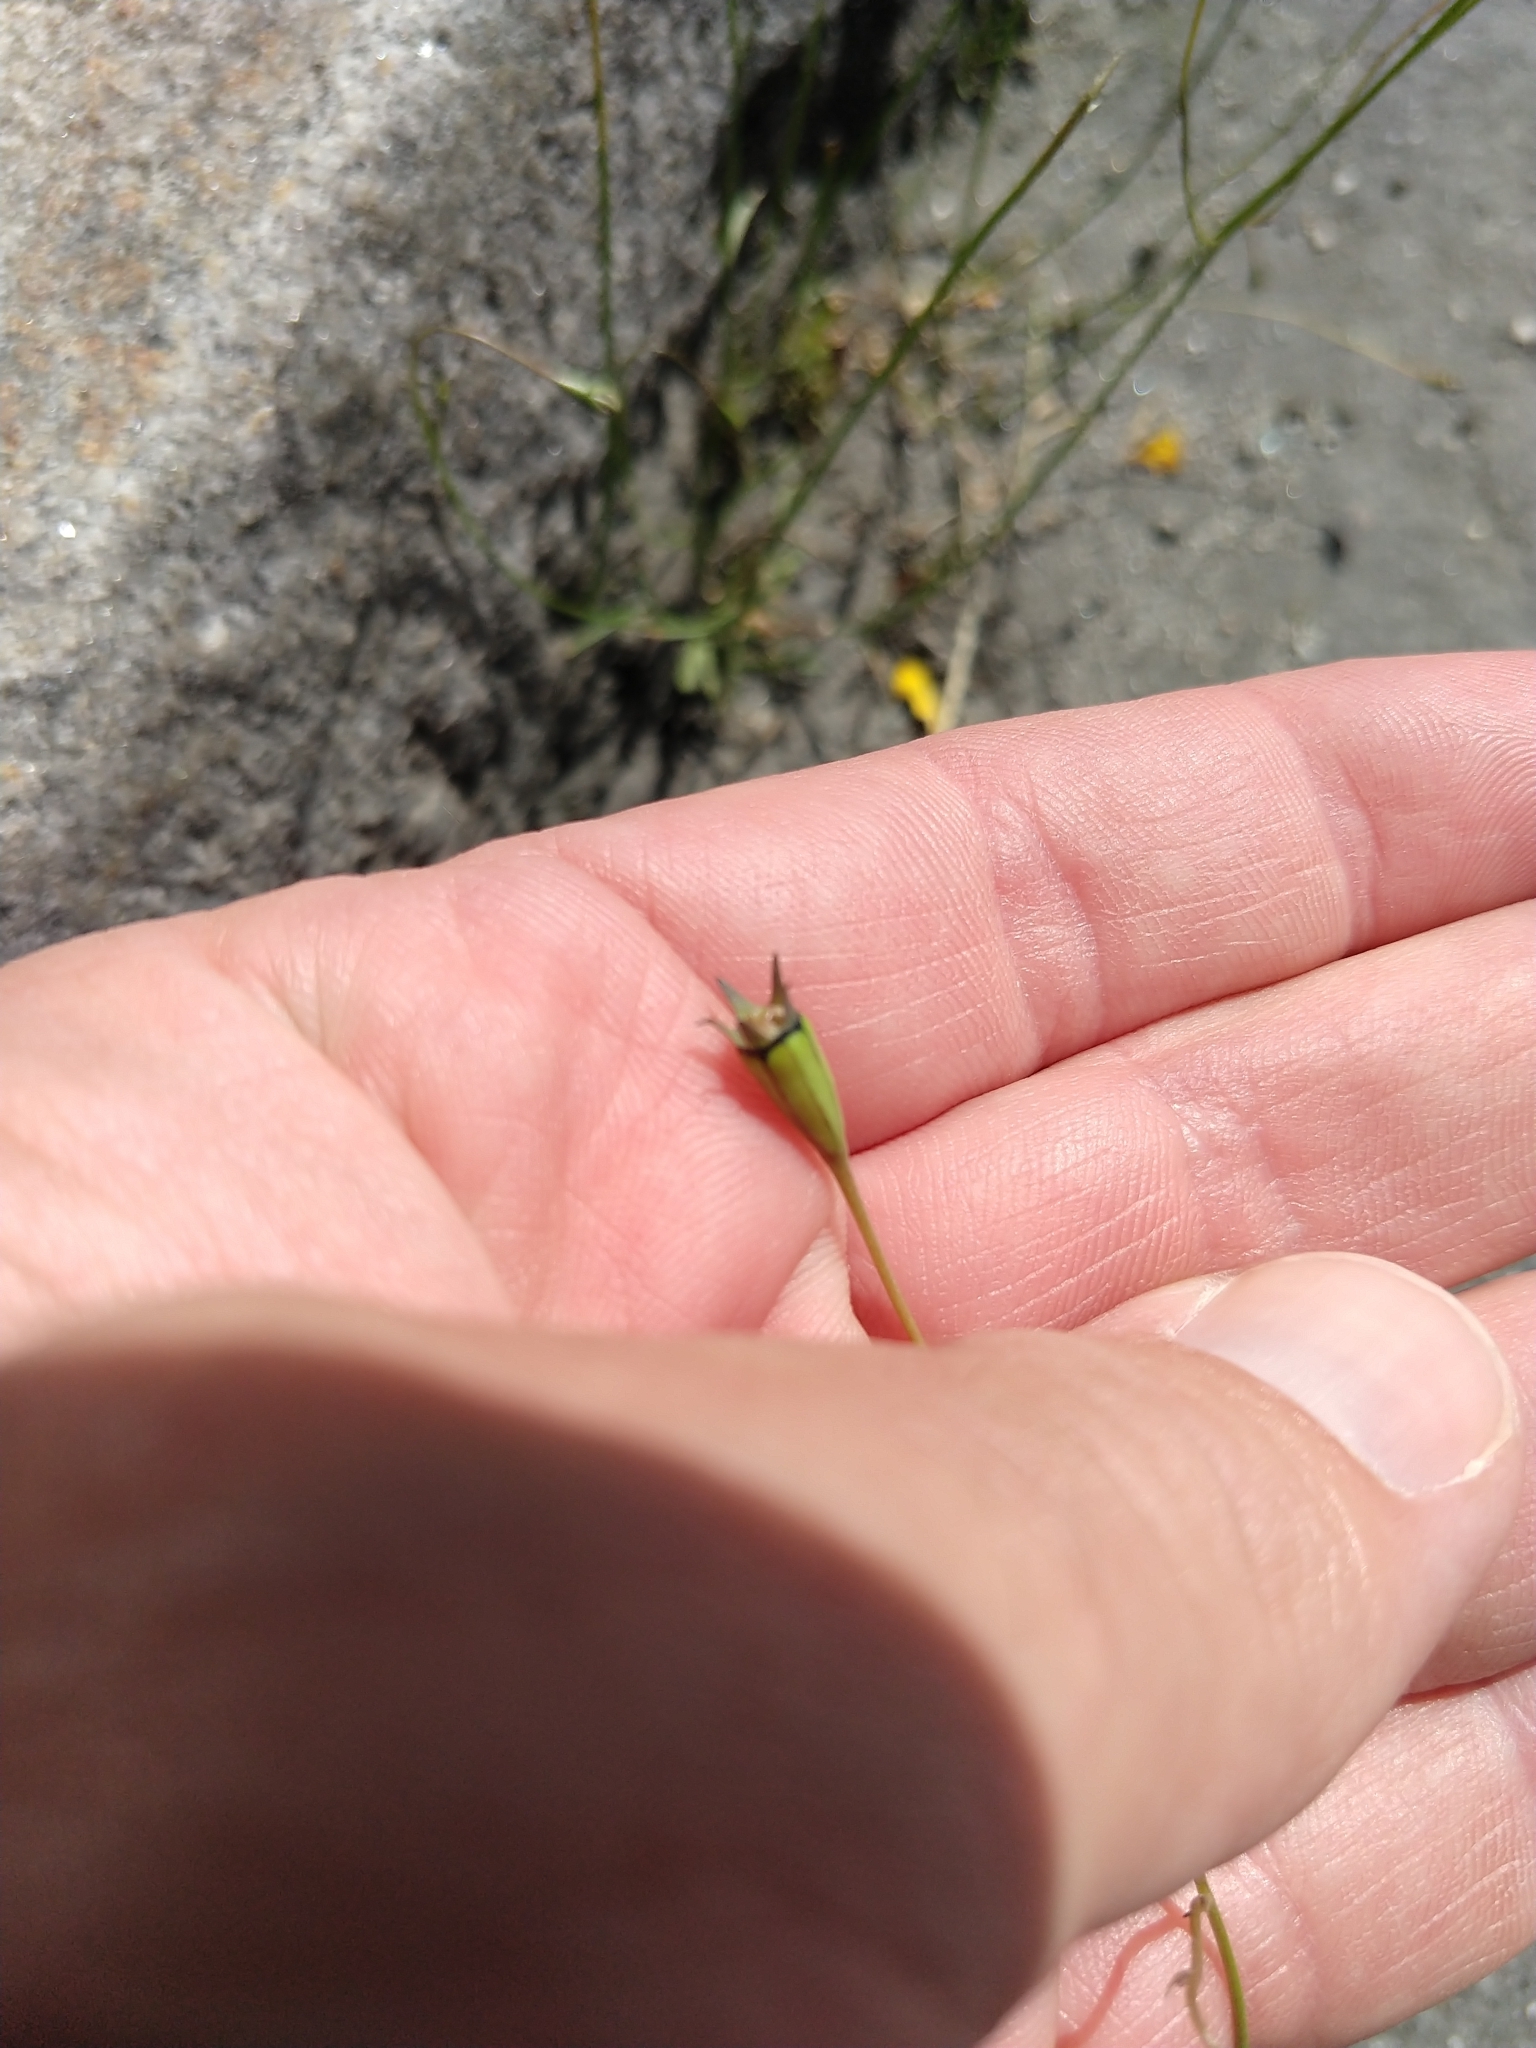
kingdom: Plantae
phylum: Tracheophyta
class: Magnoliopsida
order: Asterales
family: Campanulaceae
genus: Wahlenbergia
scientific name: Wahlenbergia marginata
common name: Southern rockbell
